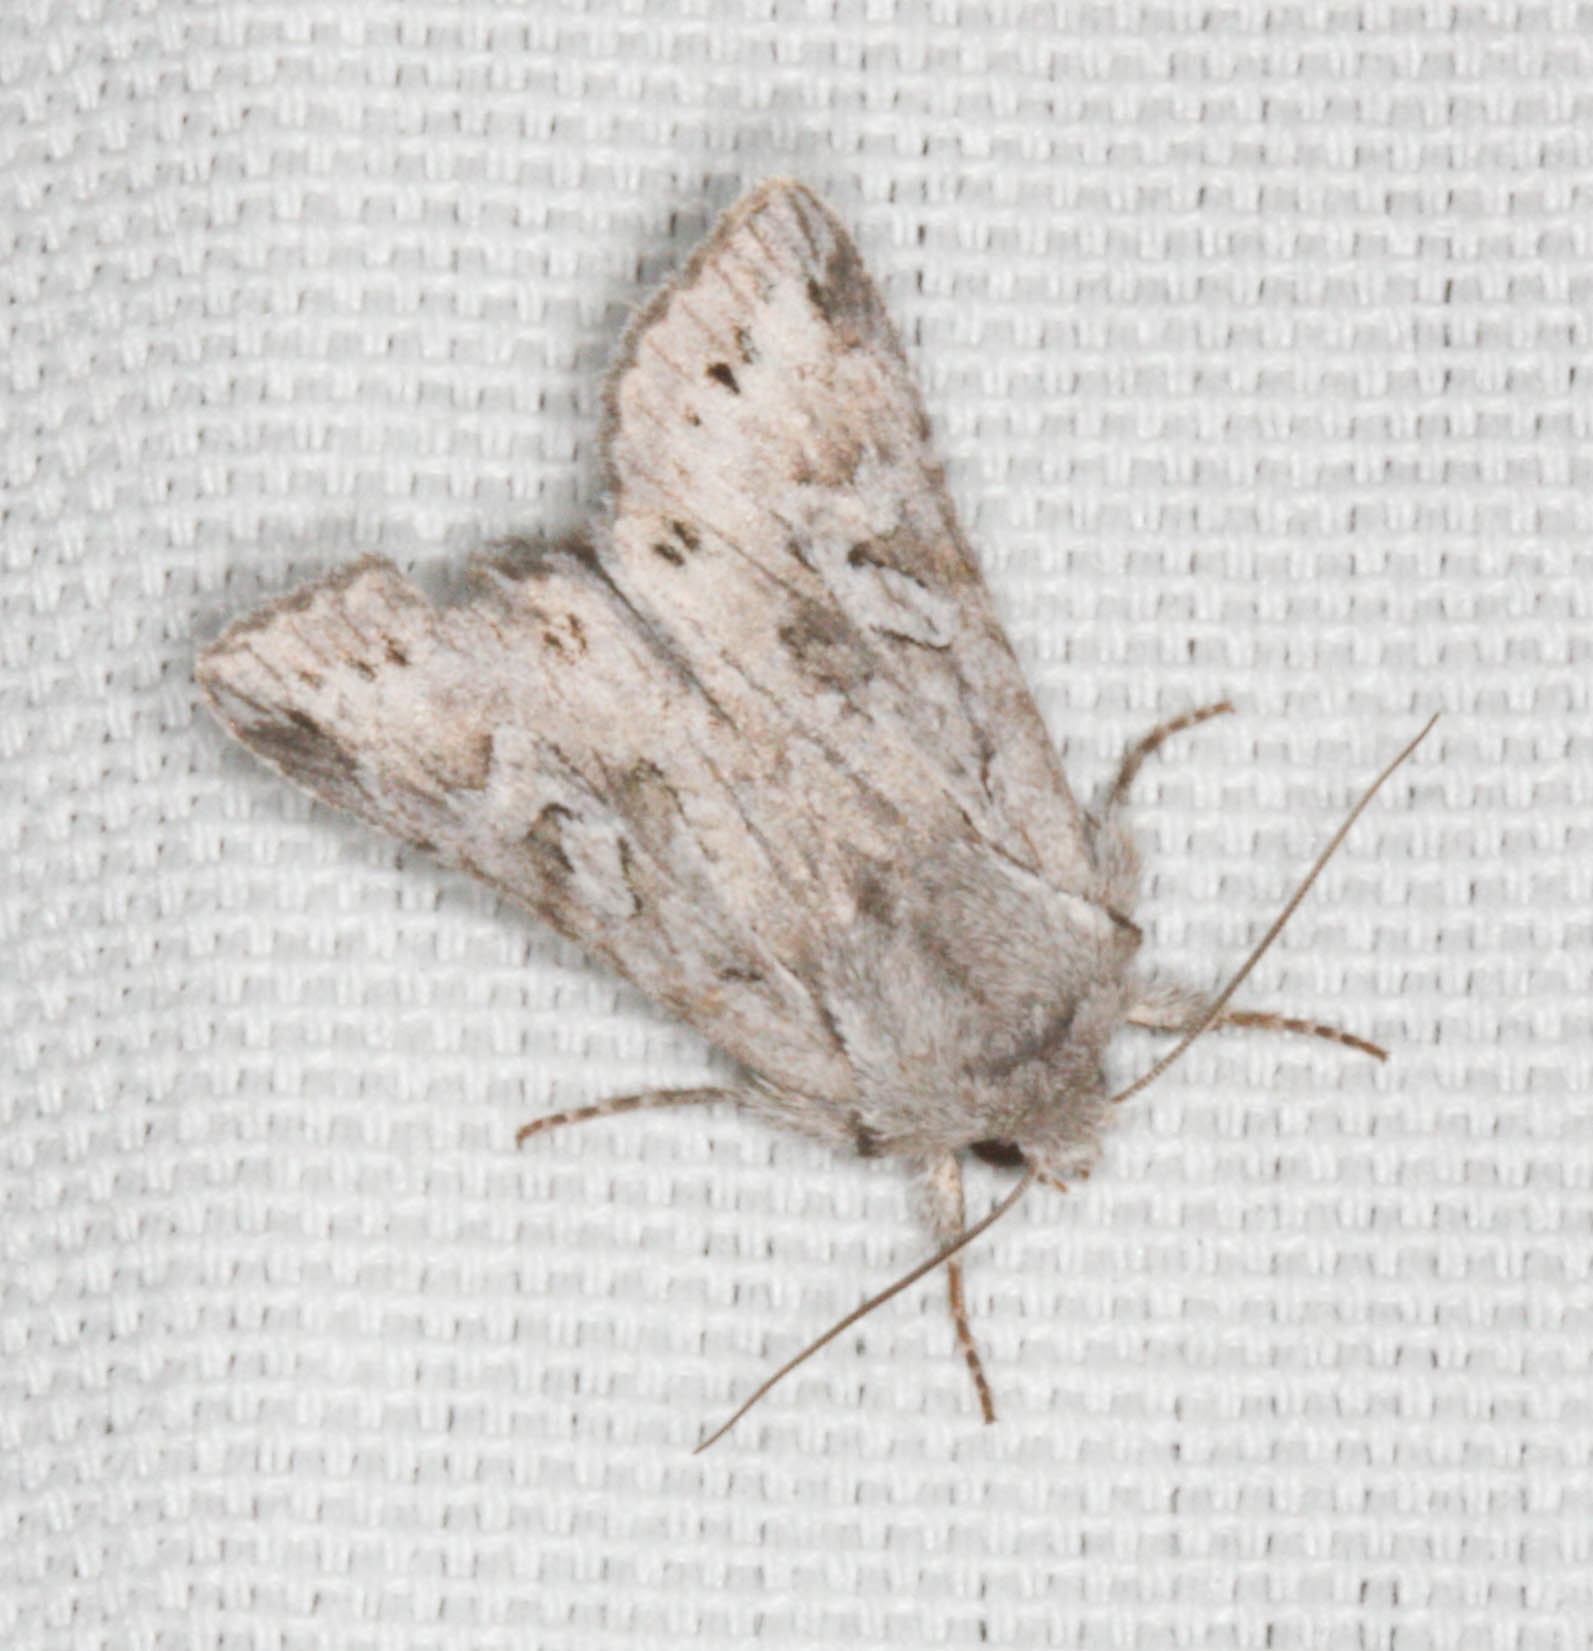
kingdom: Animalia
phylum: Arthropoda
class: Insecta
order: Lepidoptera
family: Noctuidae
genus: Lacinipolia
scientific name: Lacinipolia patalis
